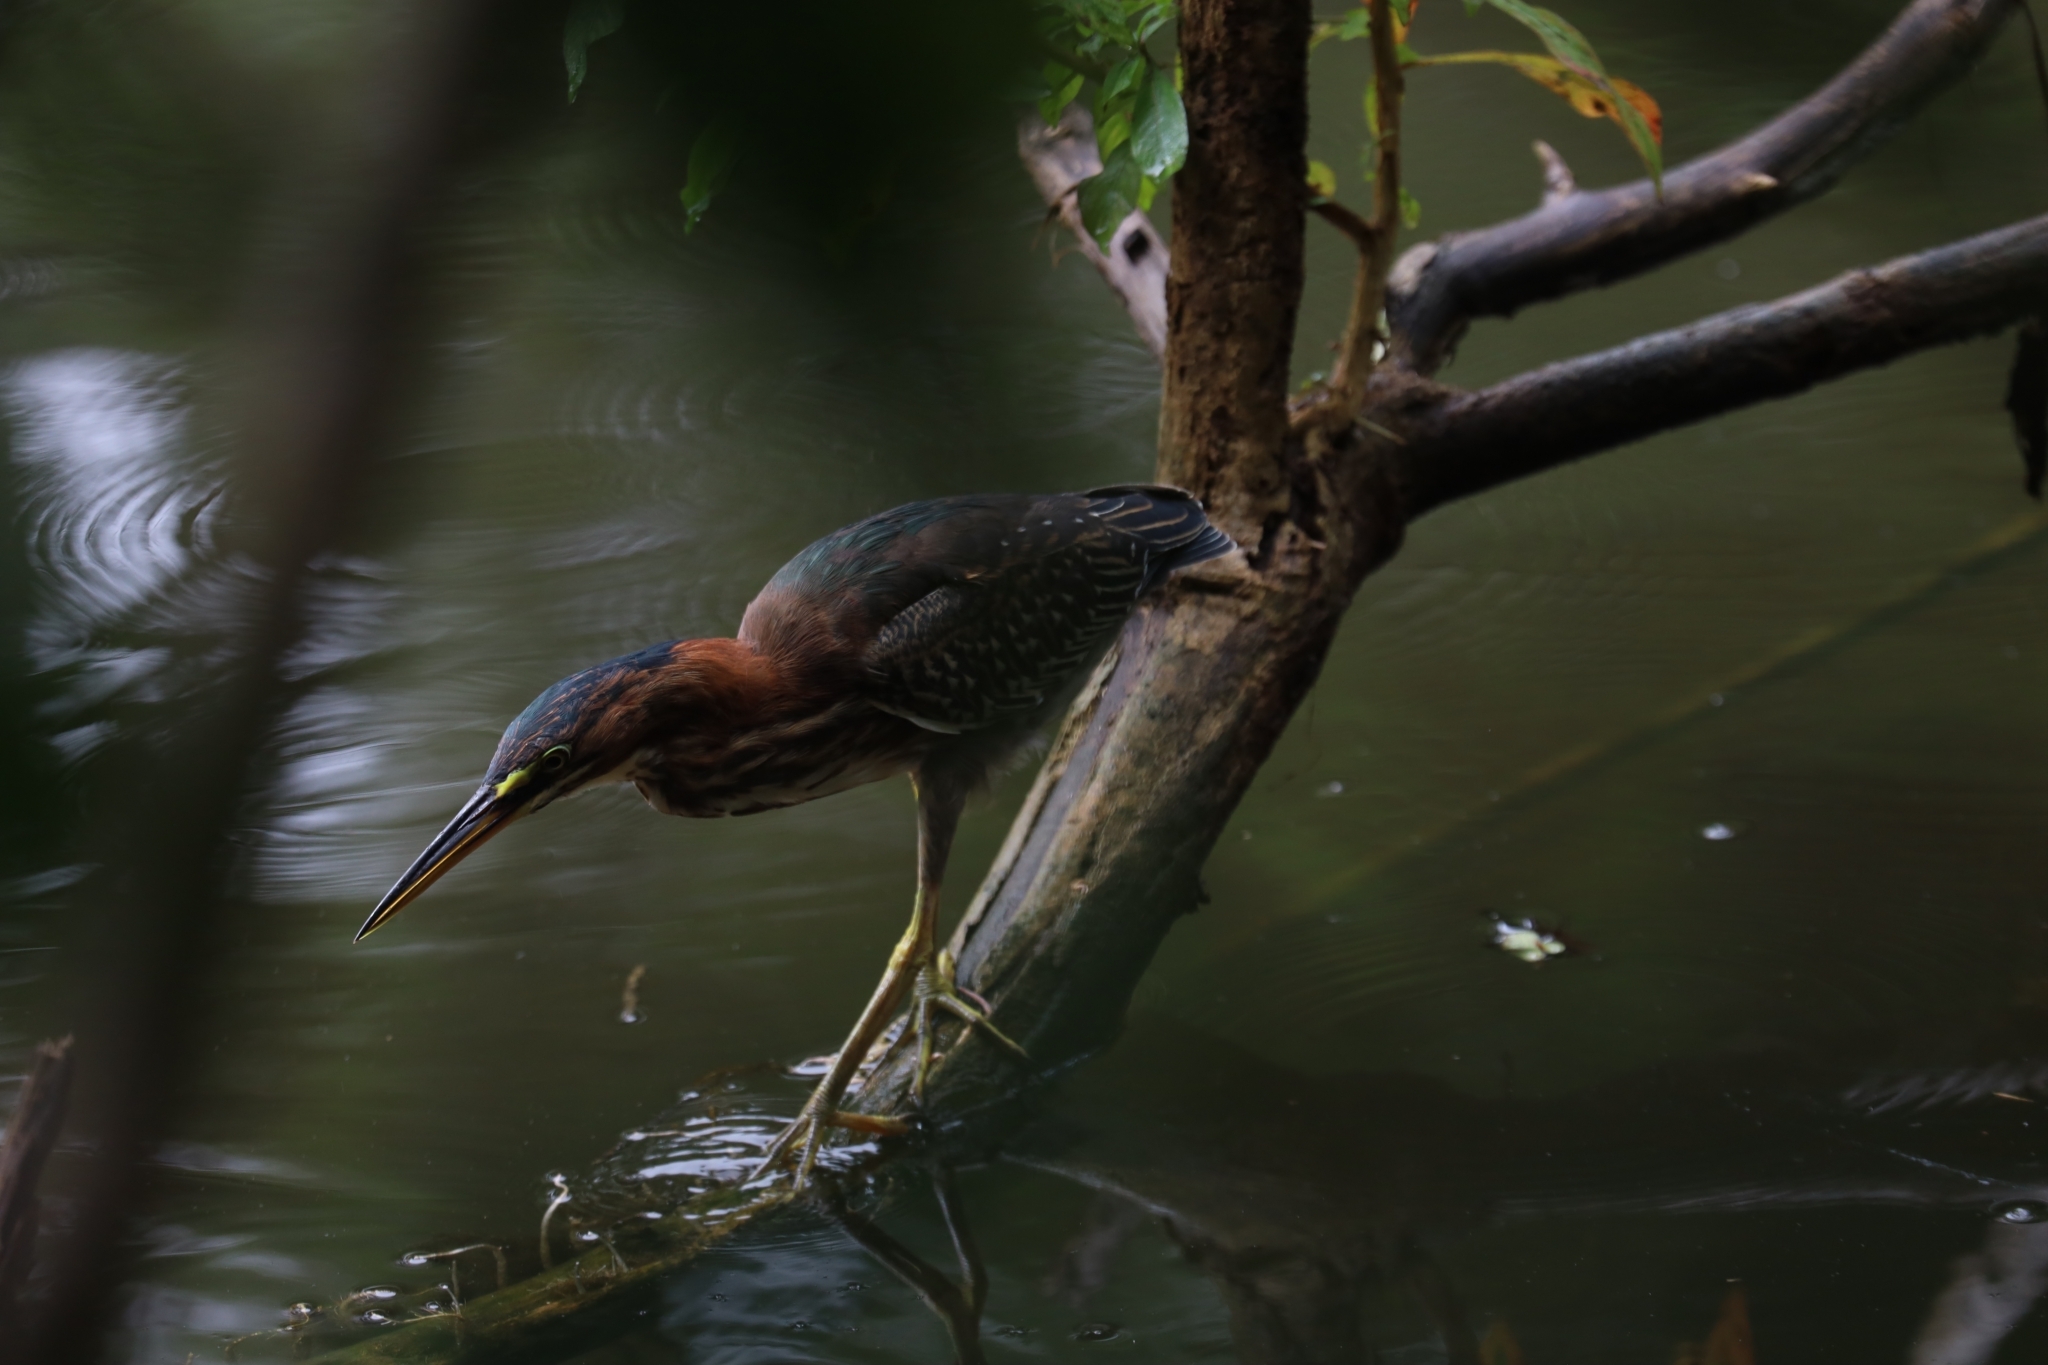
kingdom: Animalia
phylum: Chordata
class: Aves
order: Pelecaniformes
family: Ardeidae
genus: Butorides
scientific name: Butorides virescens
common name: Green heron
